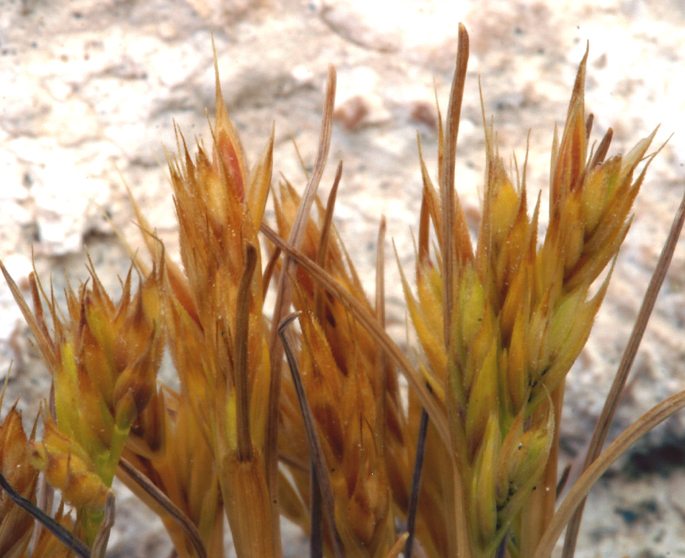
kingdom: Plantae
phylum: Tracheophyta
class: Liliopsida
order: Poales
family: Poaceae
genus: Festuca
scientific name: Festuca octoflora
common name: Sixweeks grass
